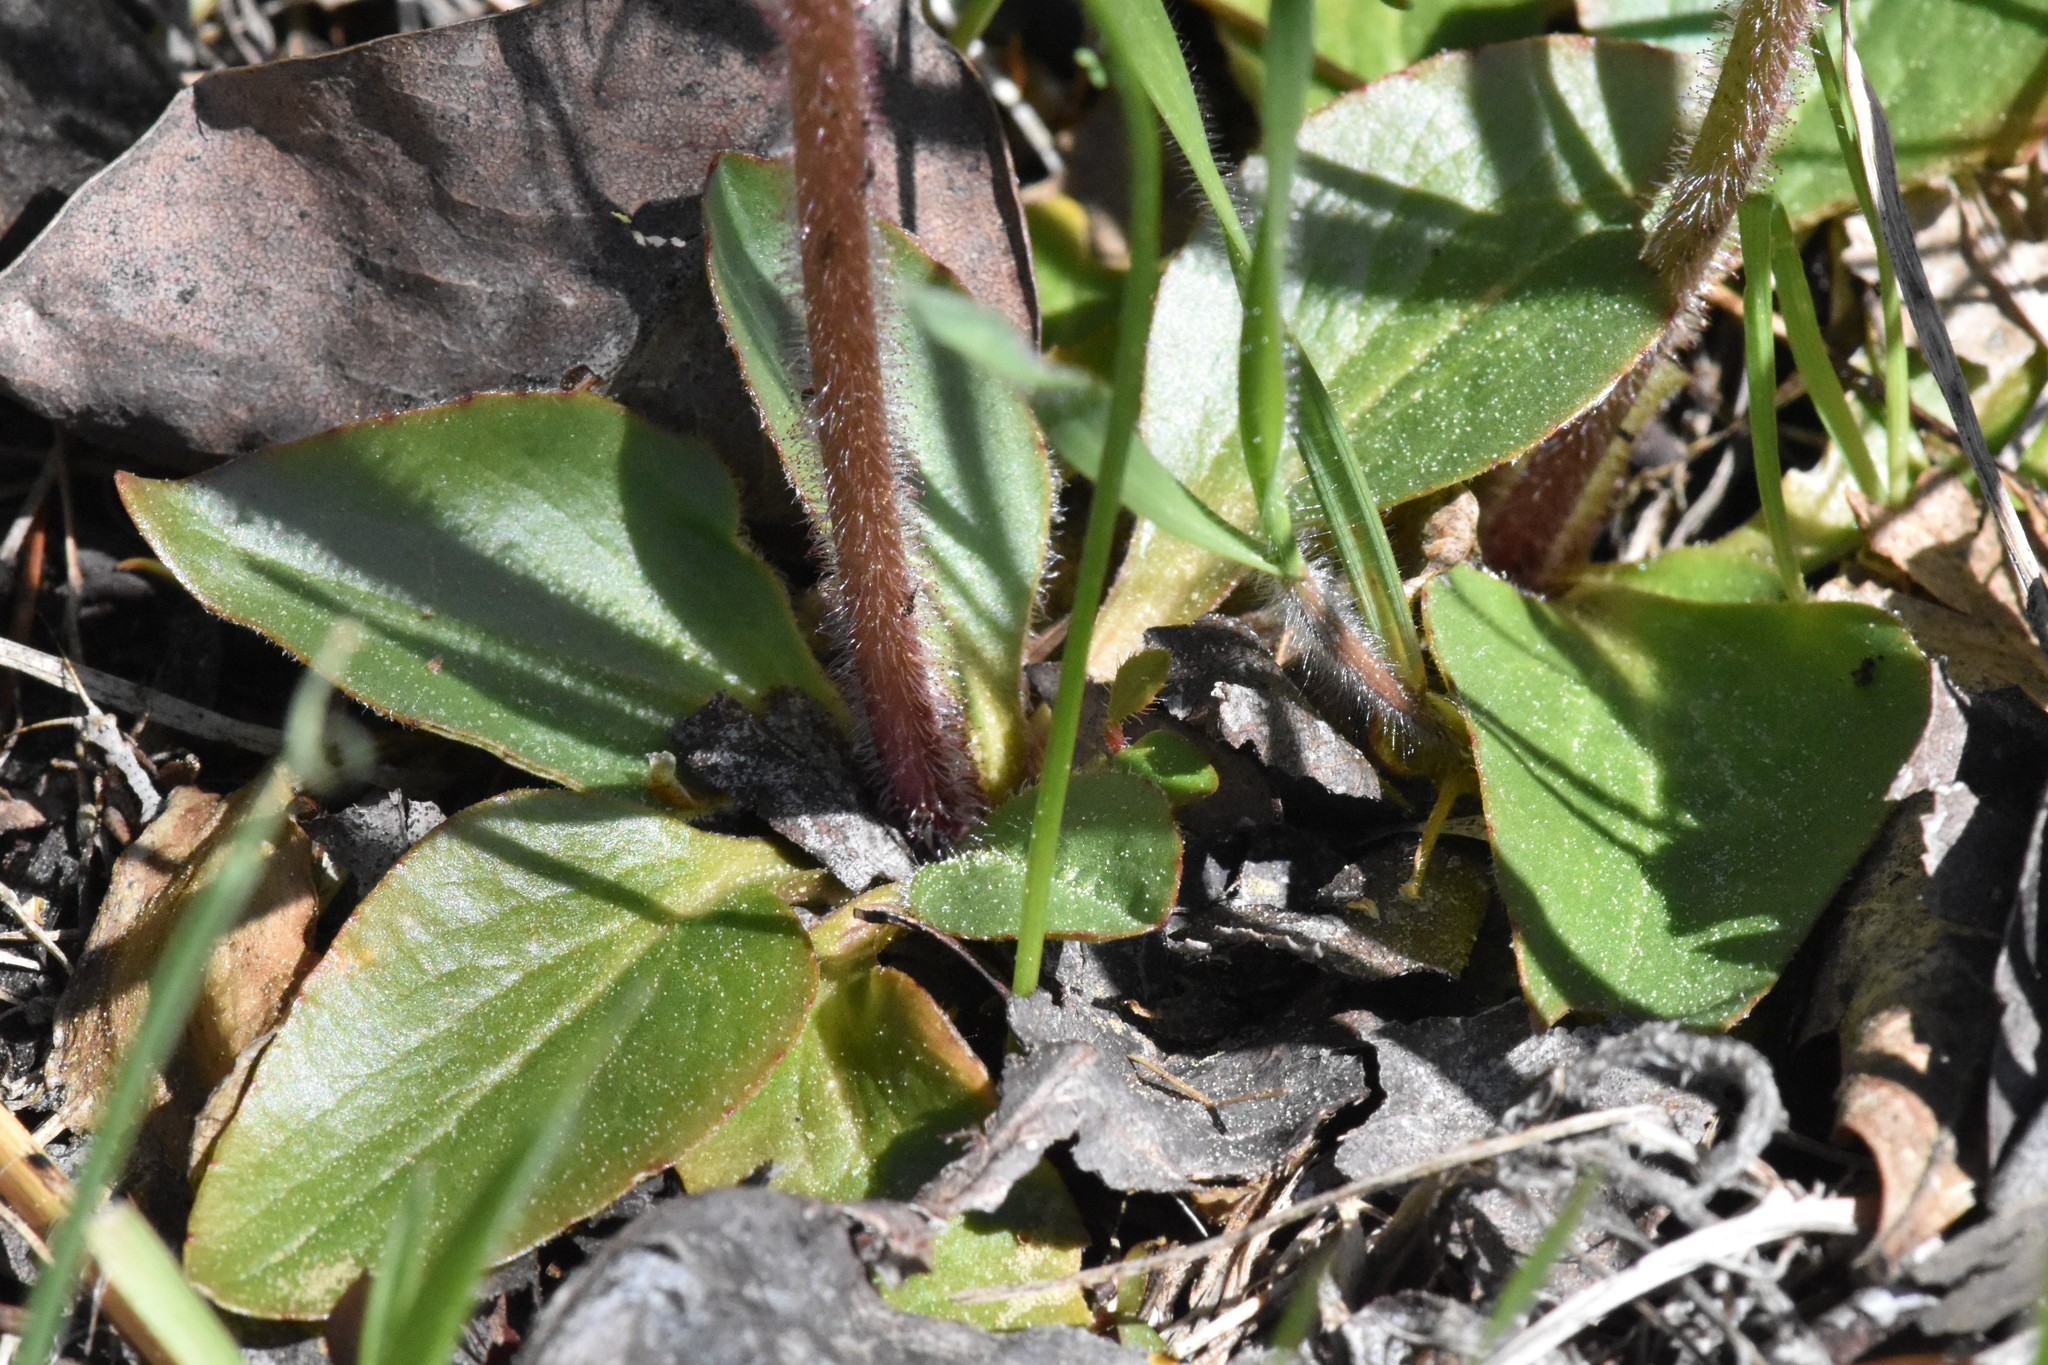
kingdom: Plantae
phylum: Tracheophyta
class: Magnoliopsida
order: Saxifragales
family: Saxifragaceae
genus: Micranthes
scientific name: Micranthes integrifolia
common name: Wholeleaf saxifrage
